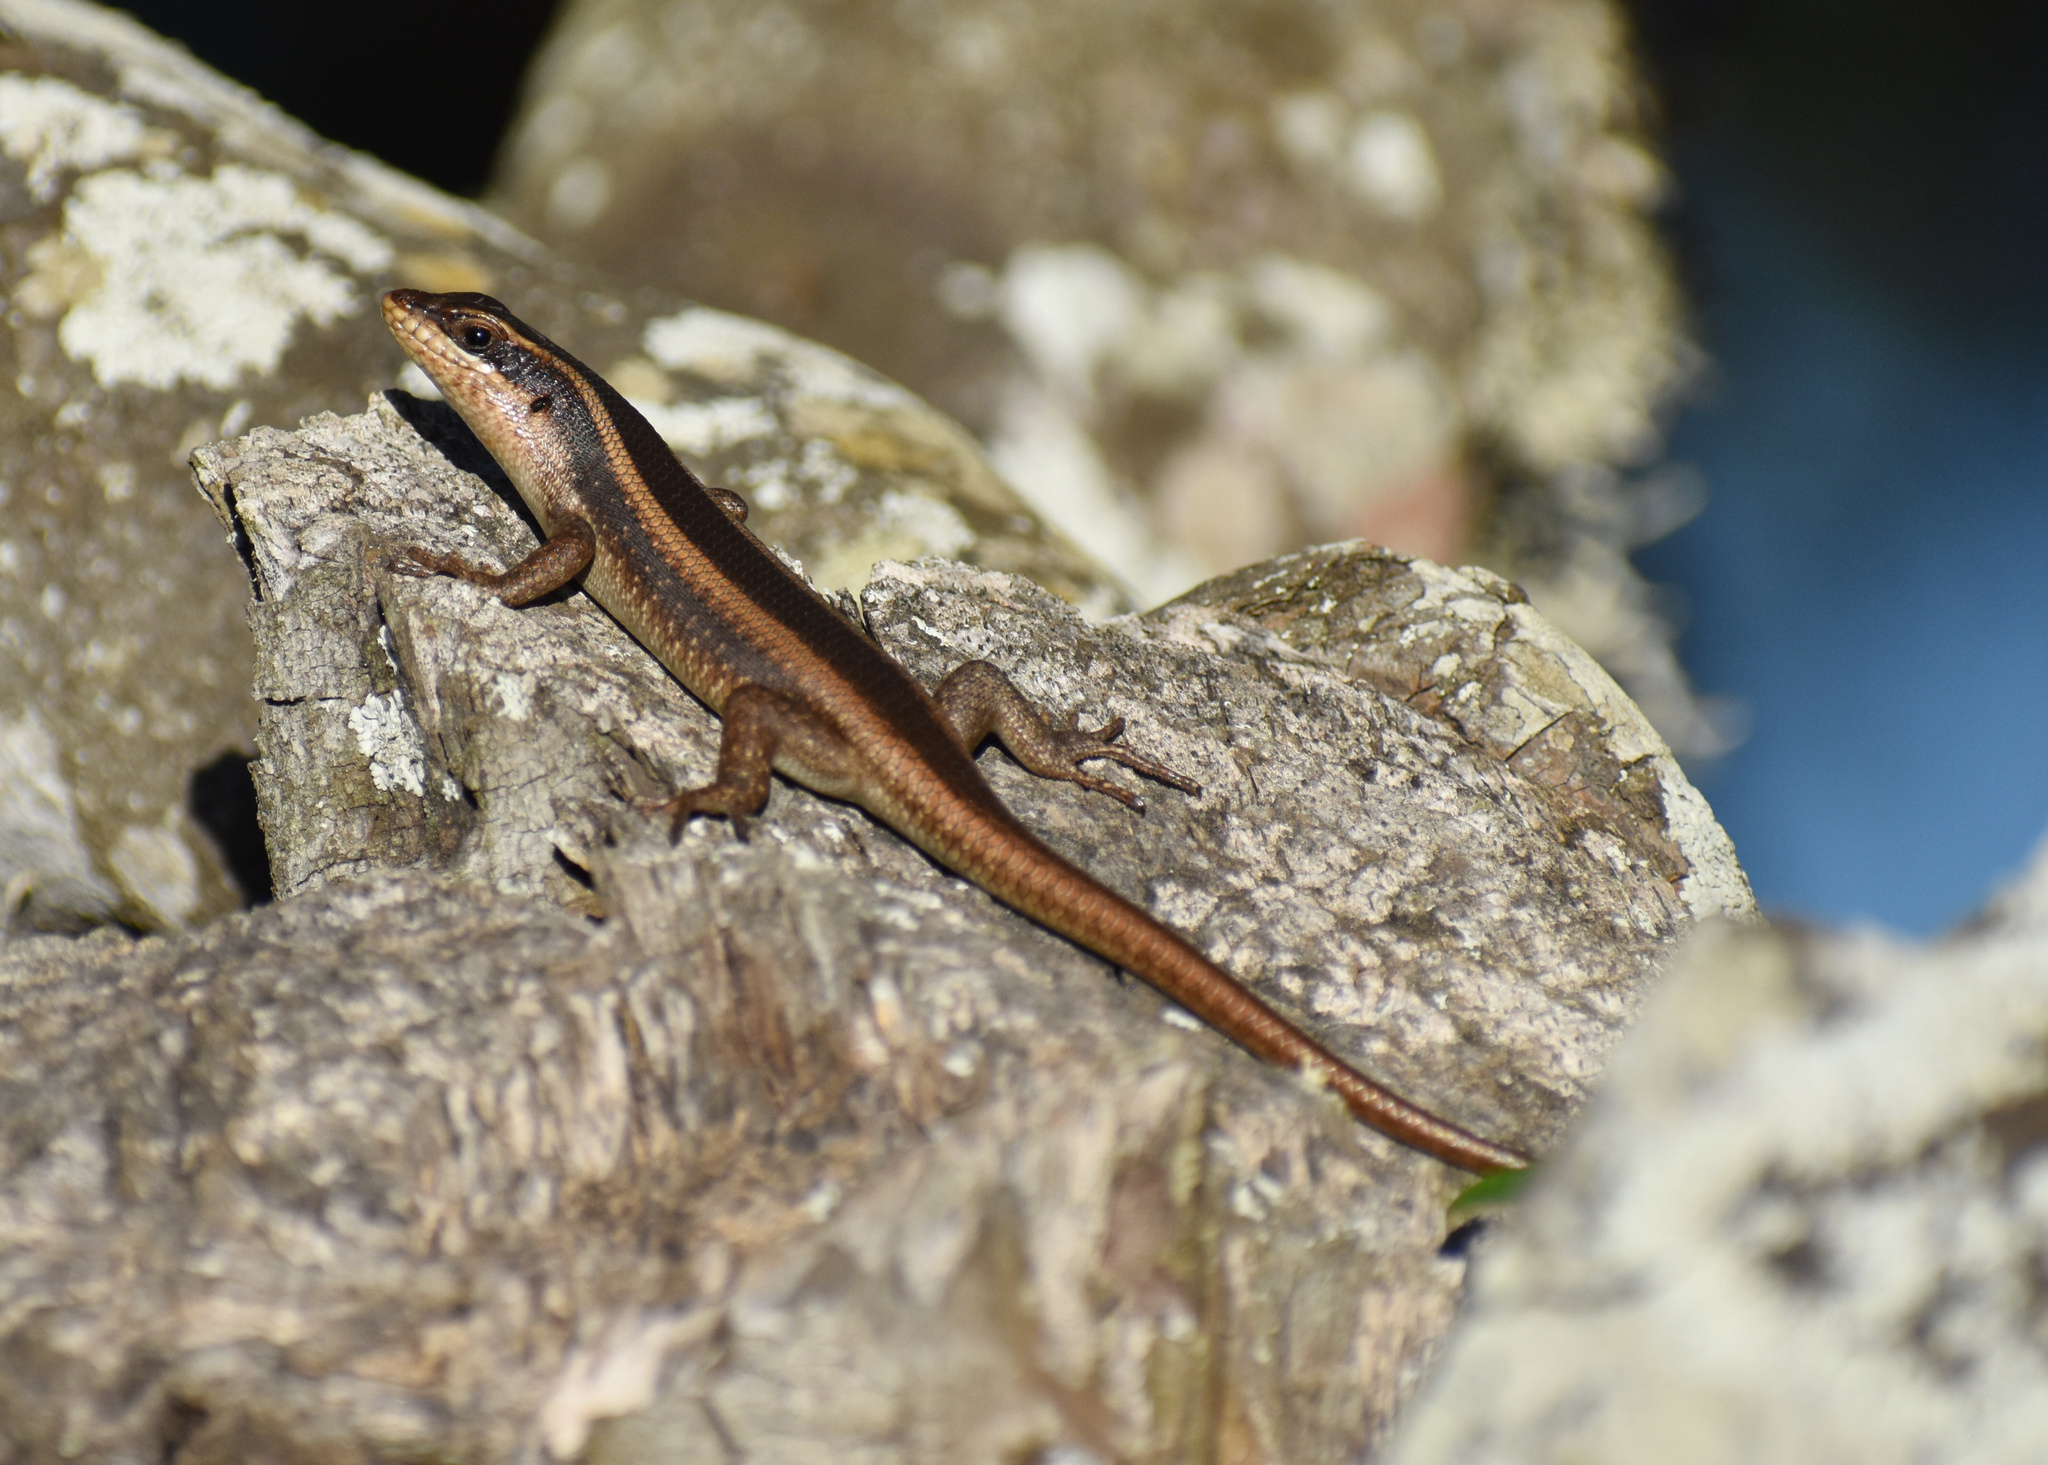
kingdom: Animalia
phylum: Chordata
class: Squamata
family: Scincidae
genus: Trachylepis
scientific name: Trachylepis striata
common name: African striped mabuya
